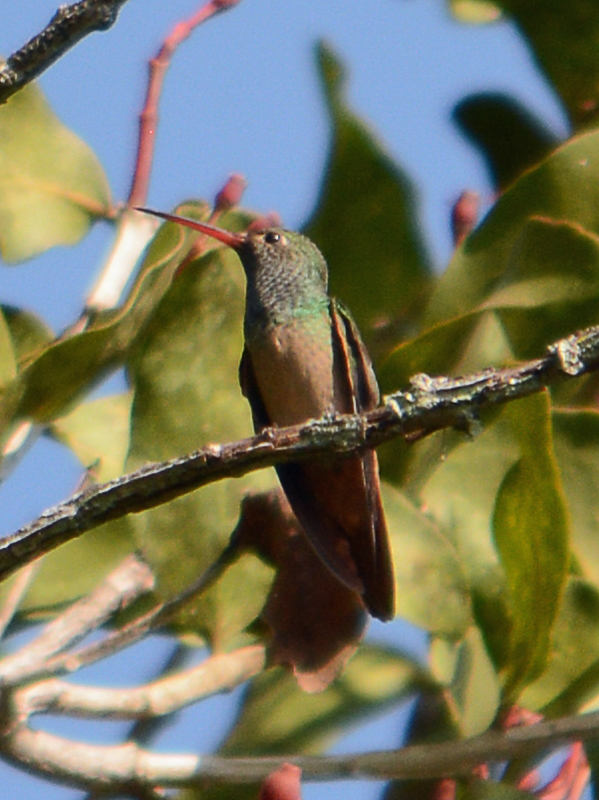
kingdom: Animalia
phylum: Chordata
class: Aves
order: Apodiformes
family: Trochilidae
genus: Amazilia
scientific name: Amazilia yucatanensis
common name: Buff-bellied hummingbird
